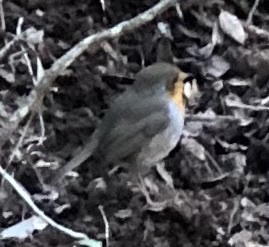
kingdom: Animalia
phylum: Chordata
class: Aves
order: Passeriformes
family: Muscicapidae
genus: Erithacus
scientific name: Erithacus rubecula
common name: European robin
